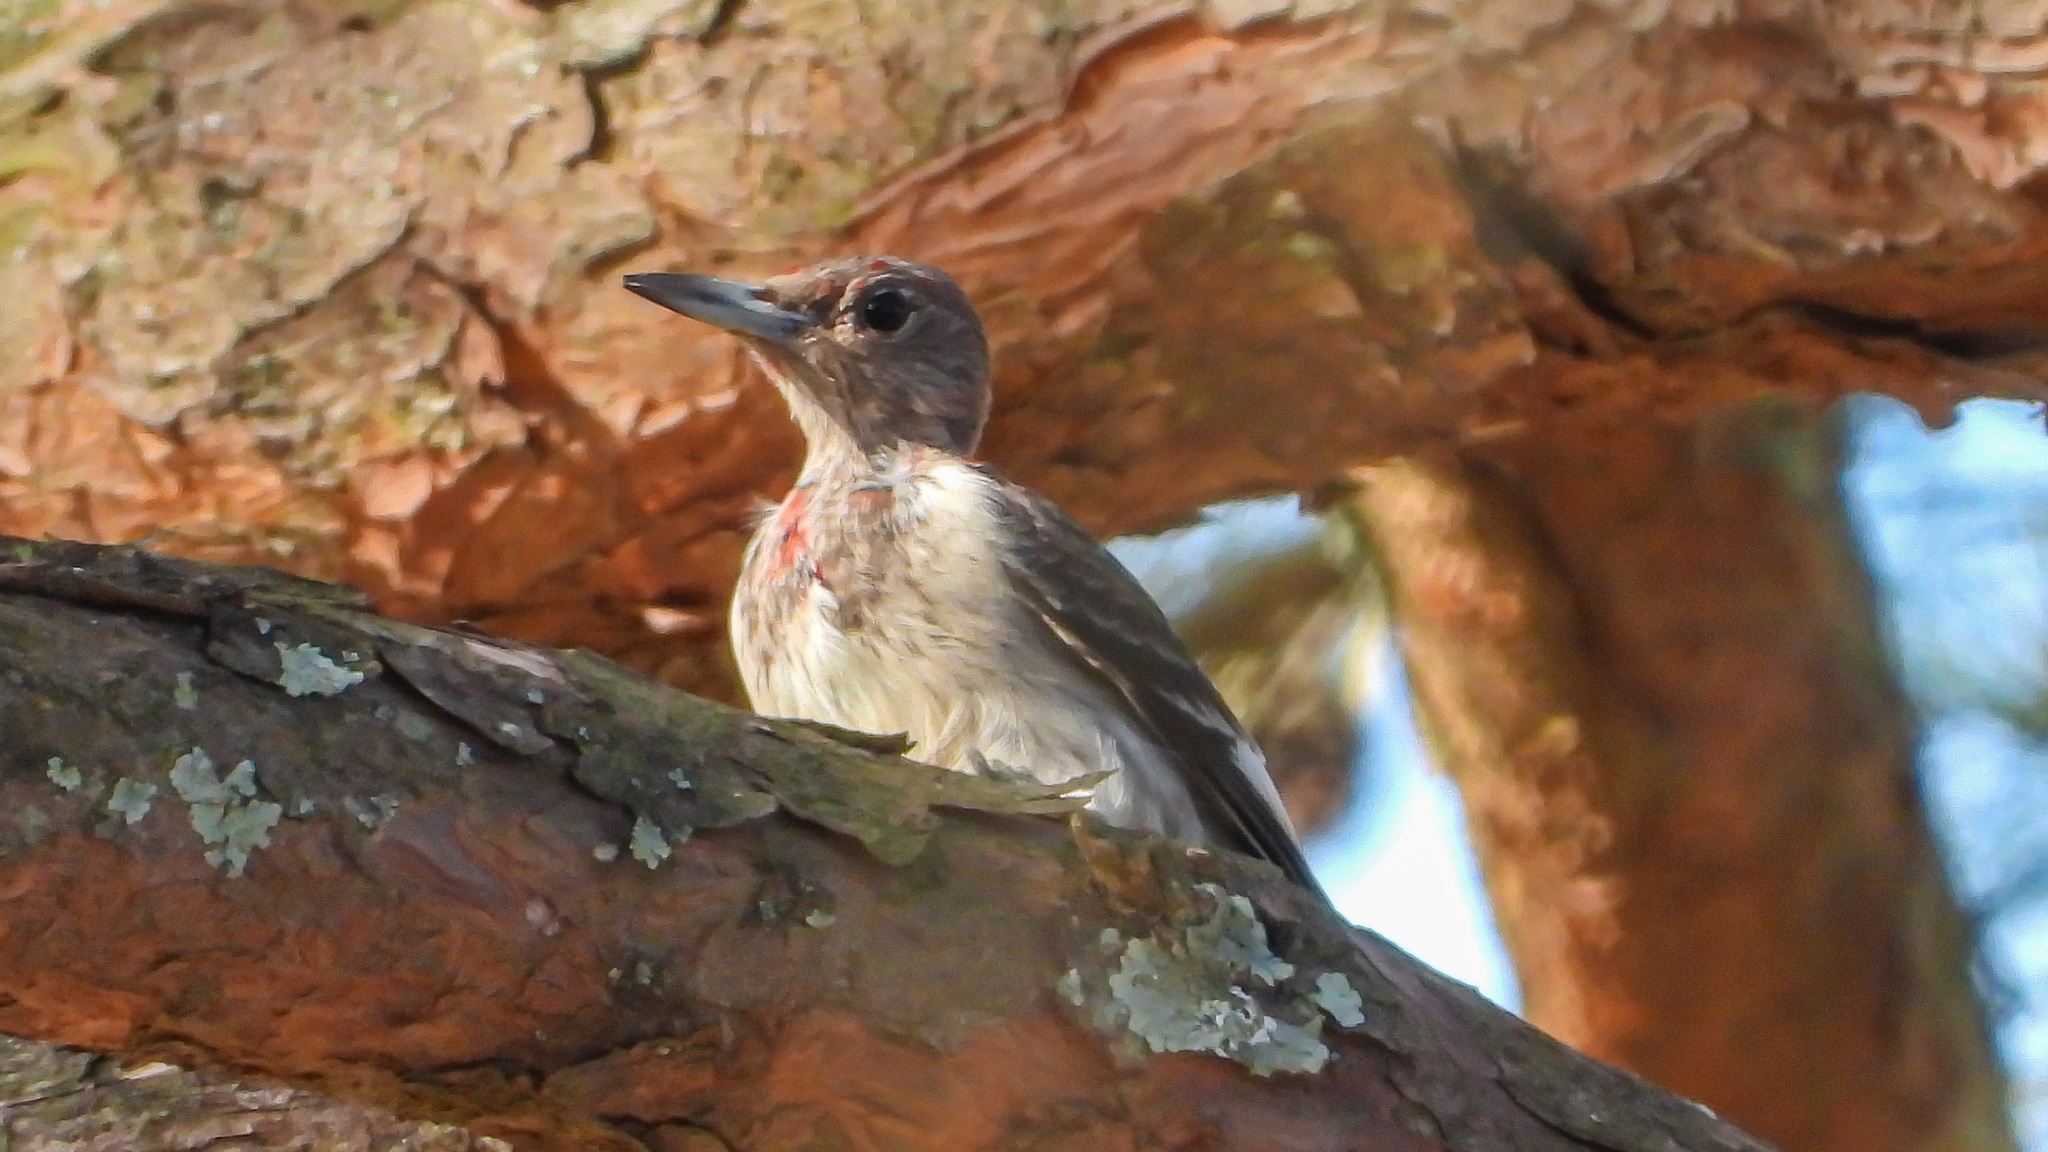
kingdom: Animalia
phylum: Chordata
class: Aves
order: Piciformes
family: Picidae
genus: Melanerpes
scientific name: Melanerpes erythrocephalus
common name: Red-headed woodpecker
